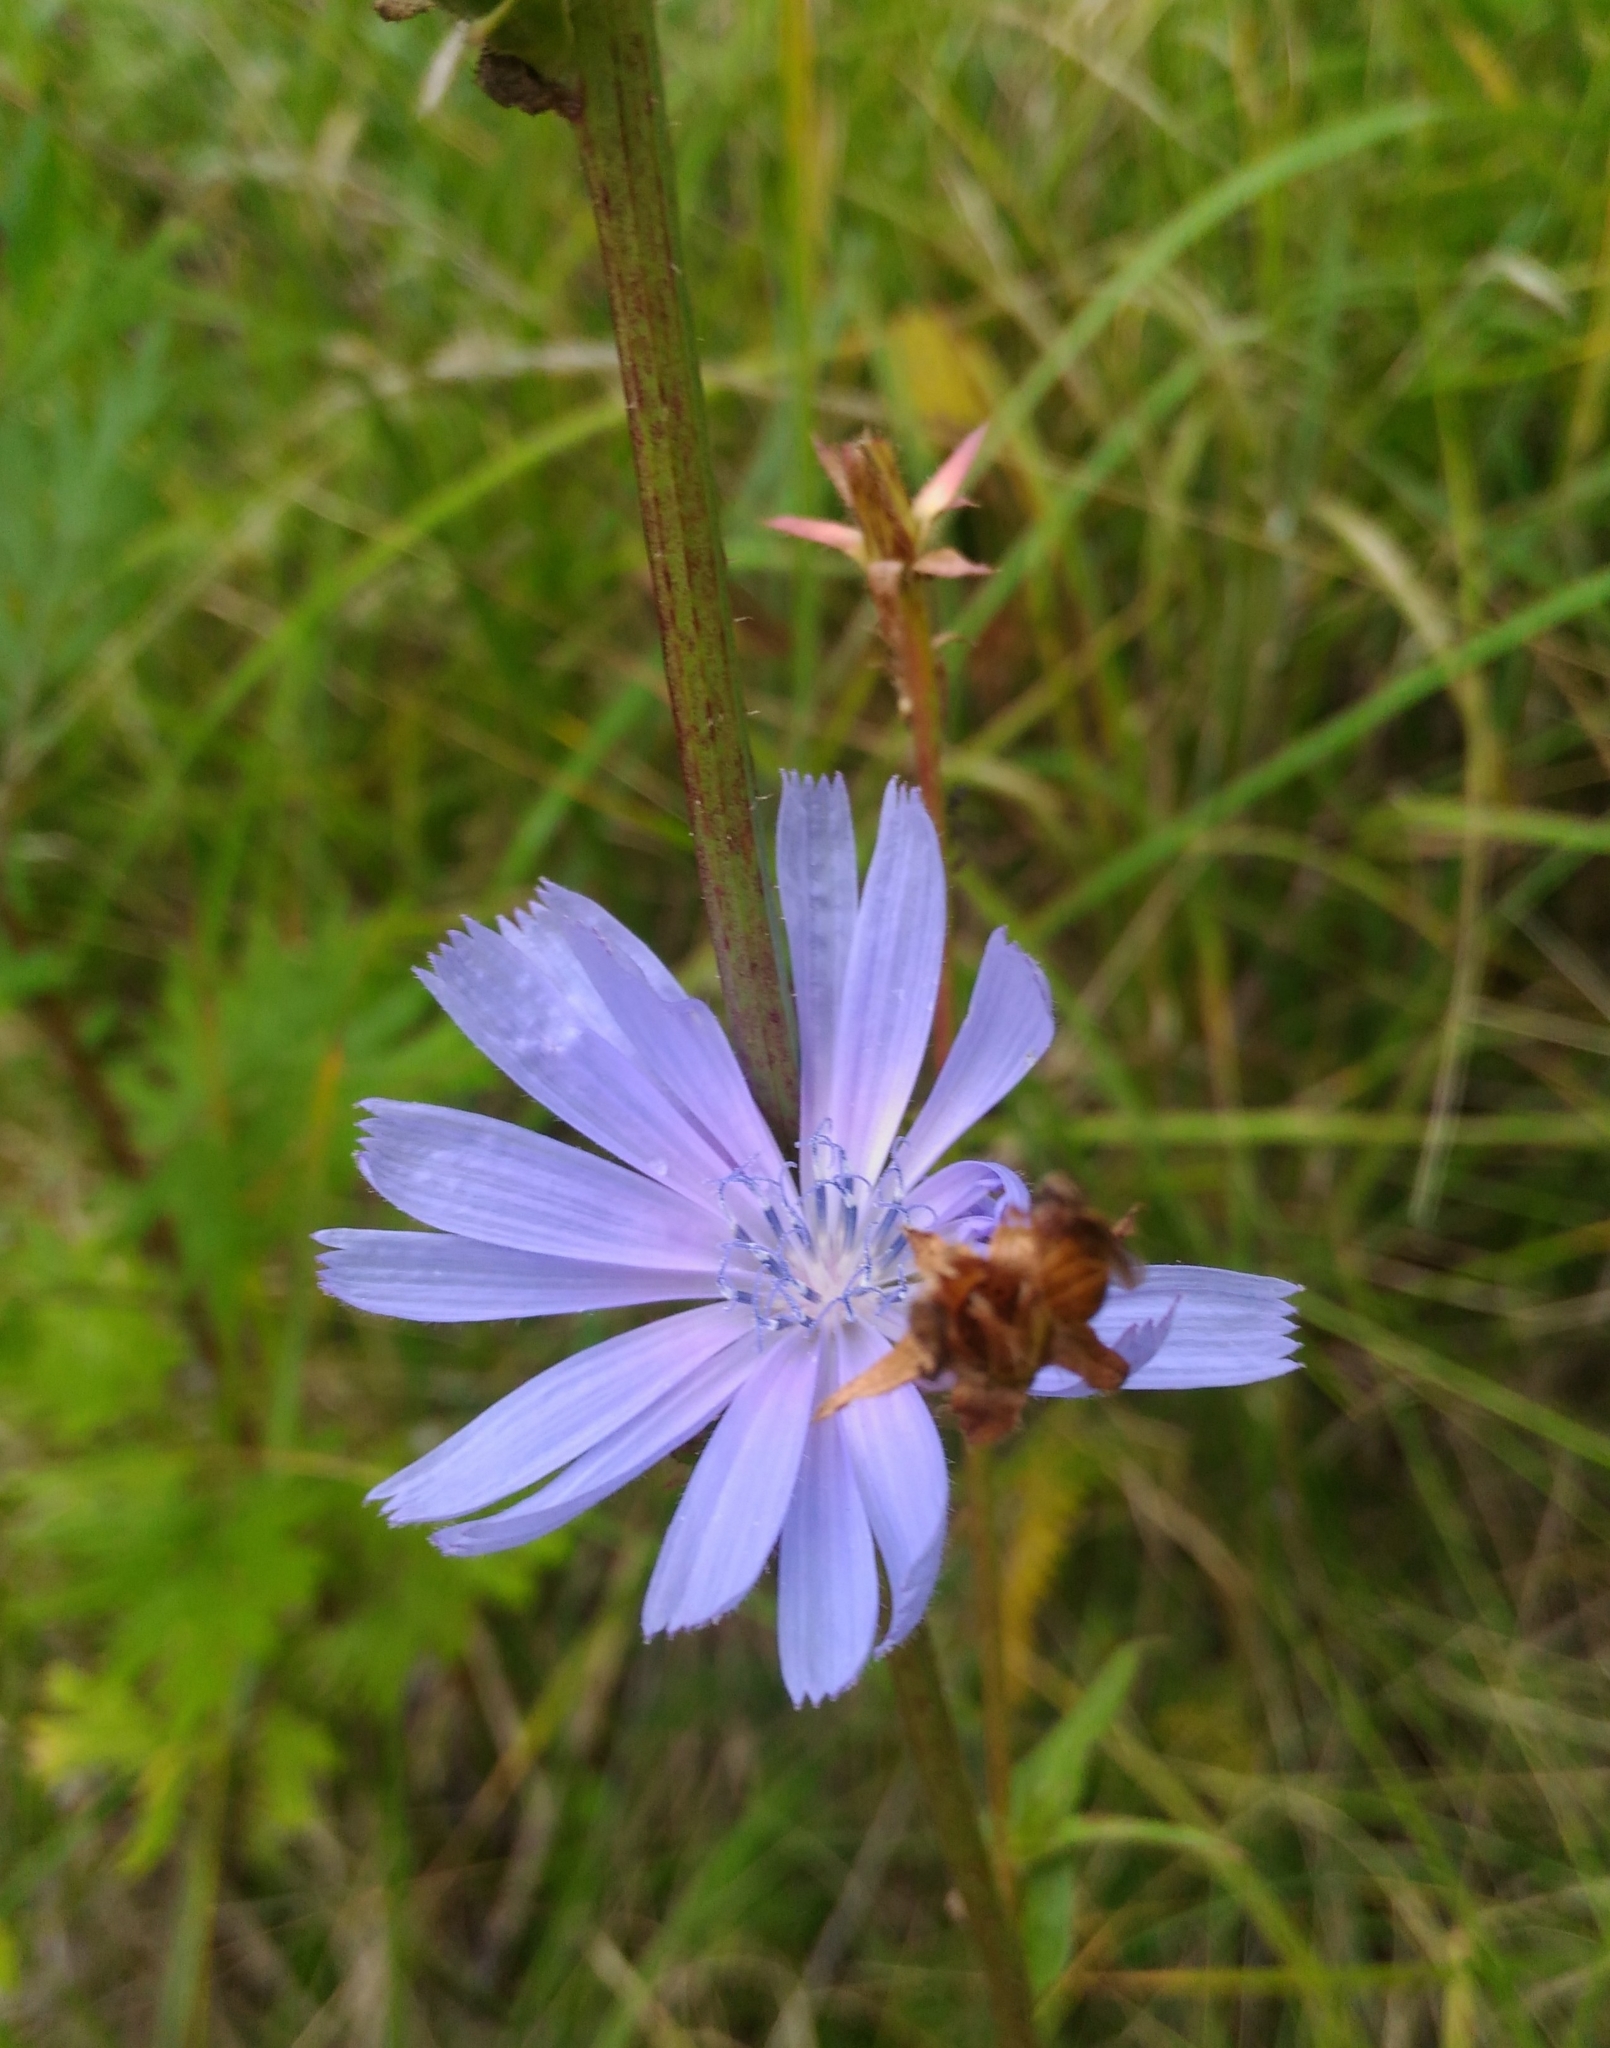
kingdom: Plantae
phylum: Tracheophyta
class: Magnoliopsida
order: Asterales
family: Asteraceae
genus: Cichorium
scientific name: Cichorium intybus
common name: Chicory
